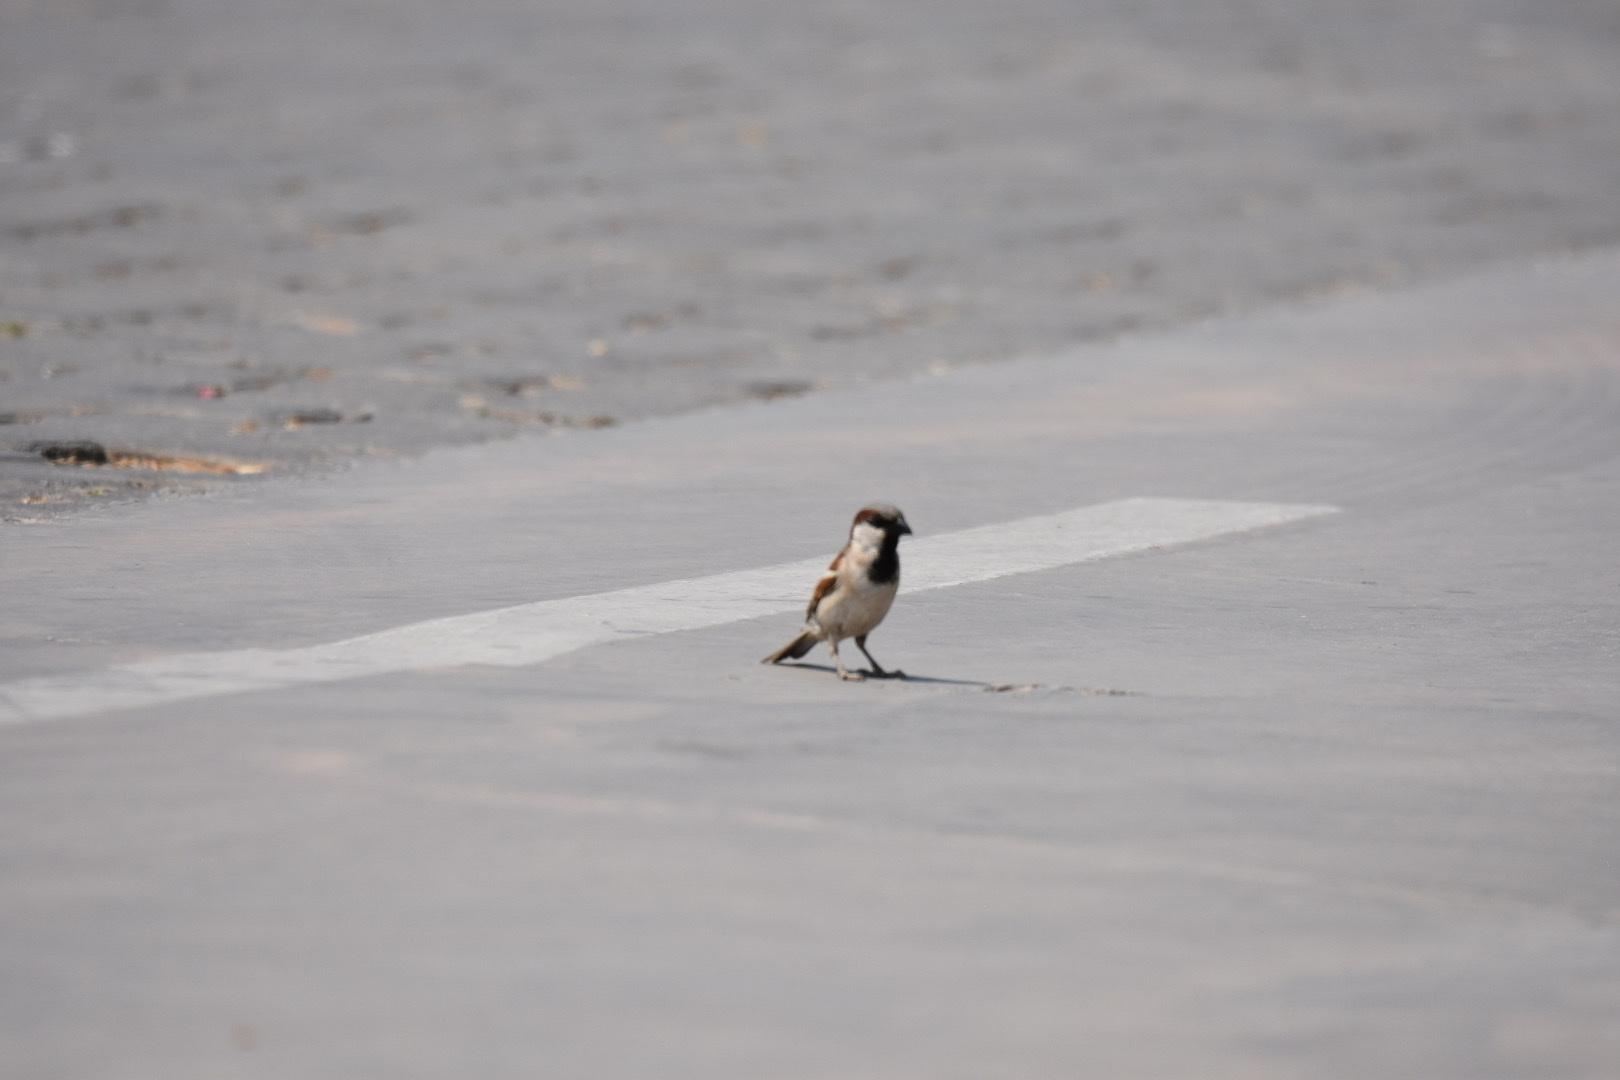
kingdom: Animalia
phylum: Chordata
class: Aves
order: Passeriformes
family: Passeridae
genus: Passer
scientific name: Passer domesticus
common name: House sparrow
